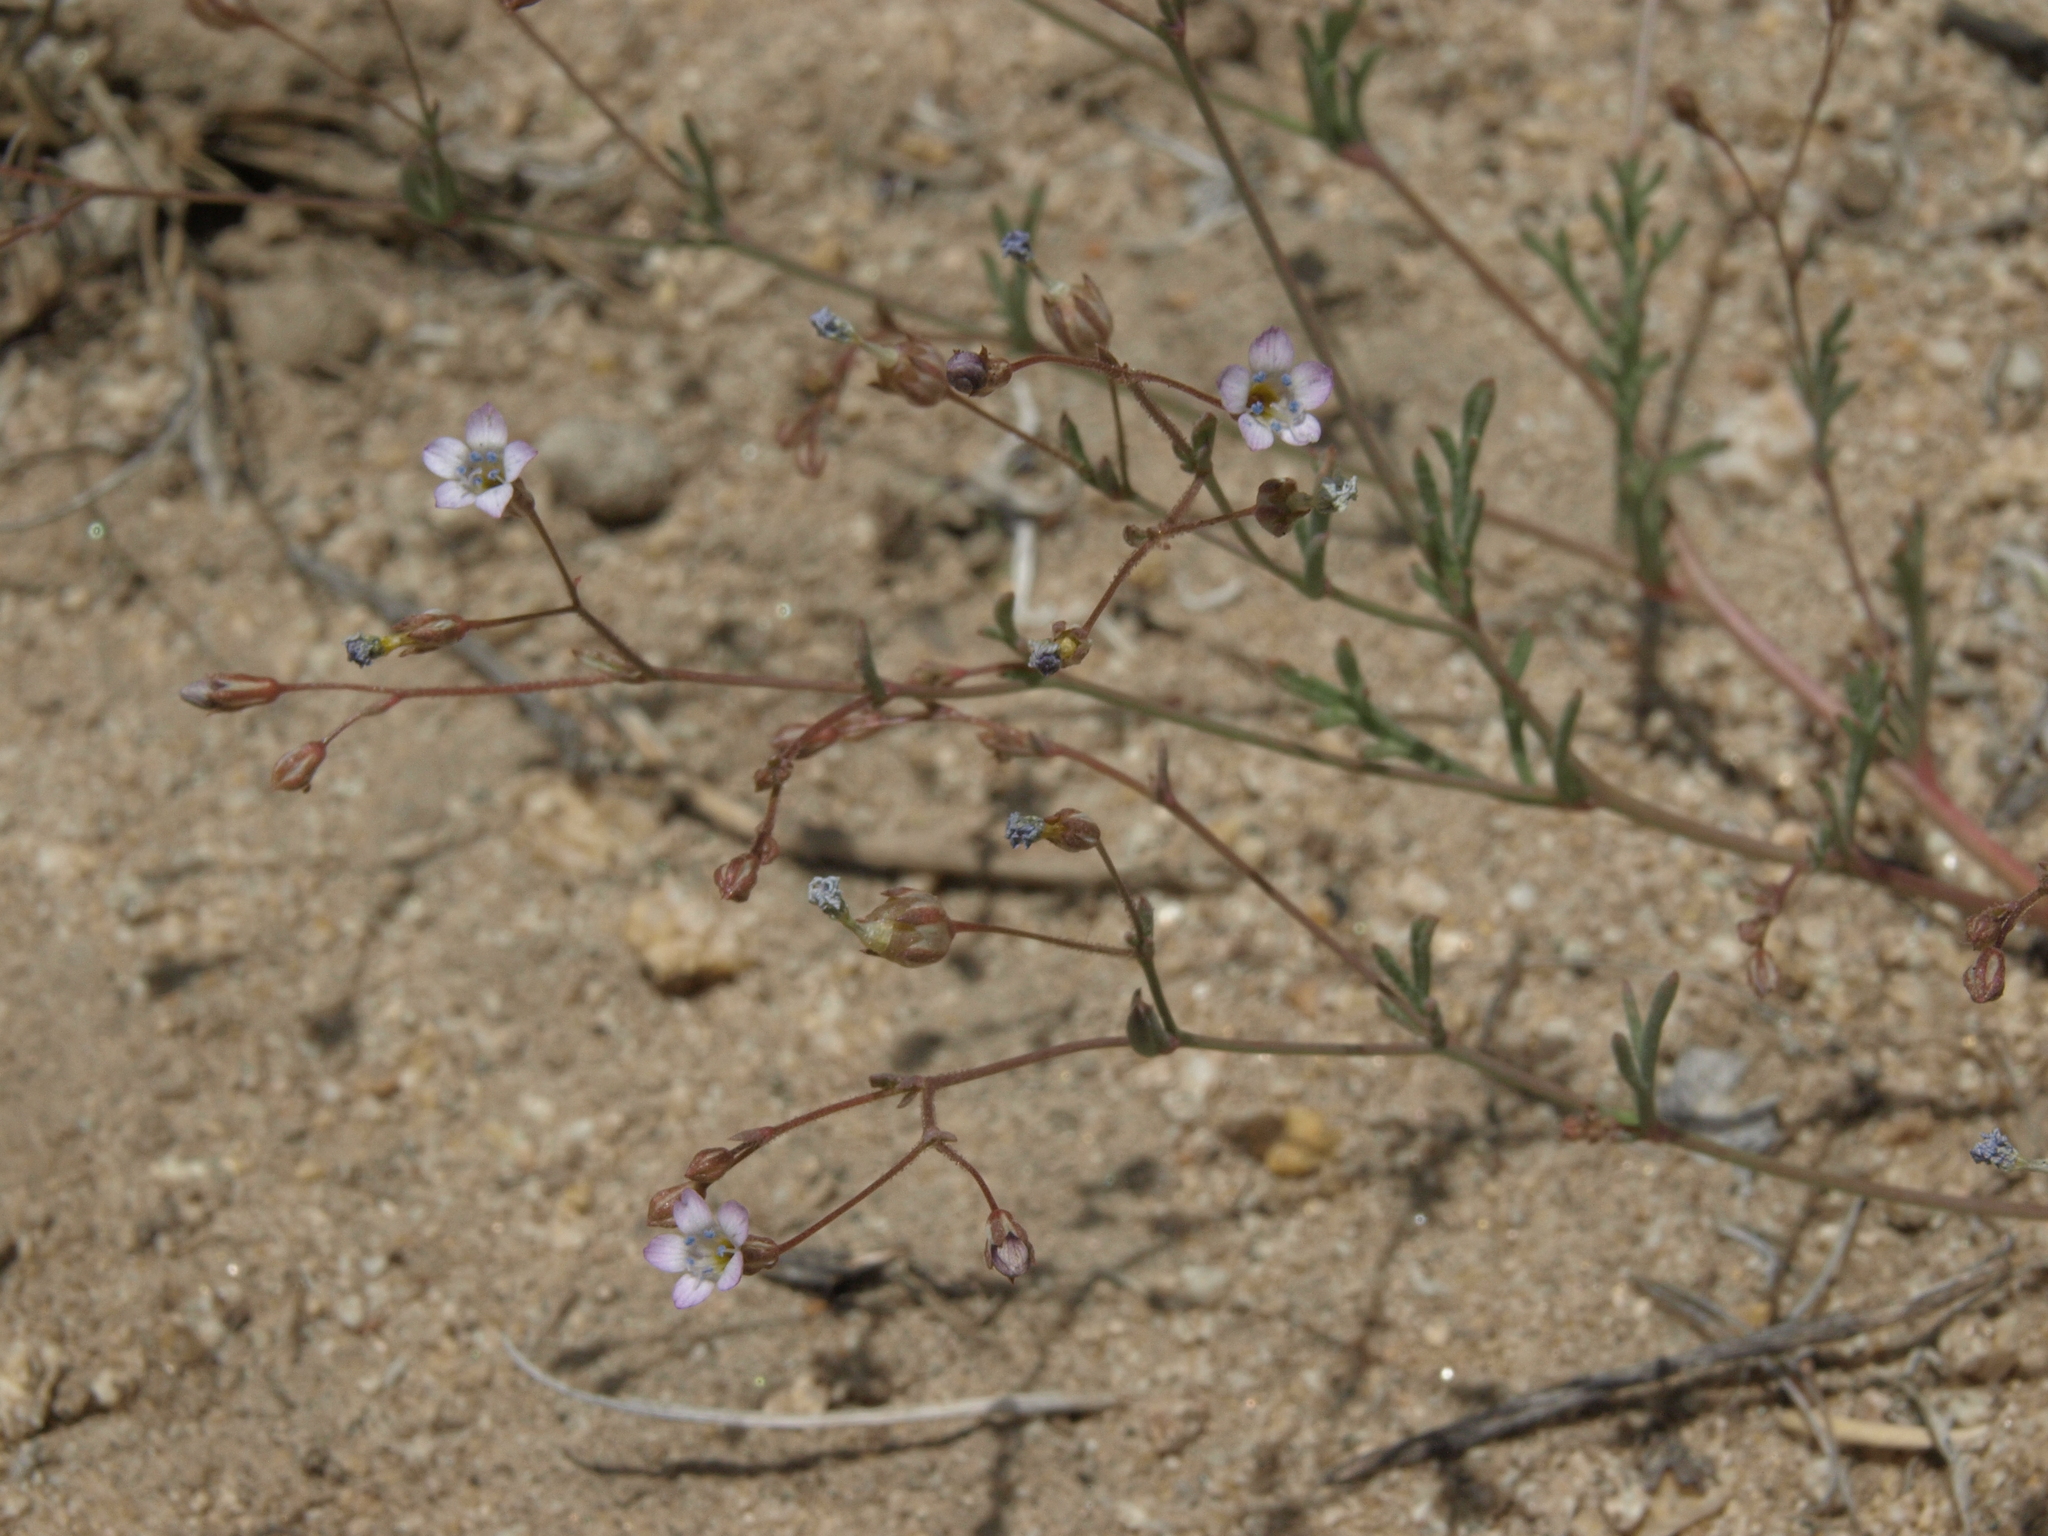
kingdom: Plantae
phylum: Tracheophyta
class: Magnoliopsida
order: Ericales
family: Polemoniaceae
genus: Gilia
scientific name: Gilia ochroleuca
